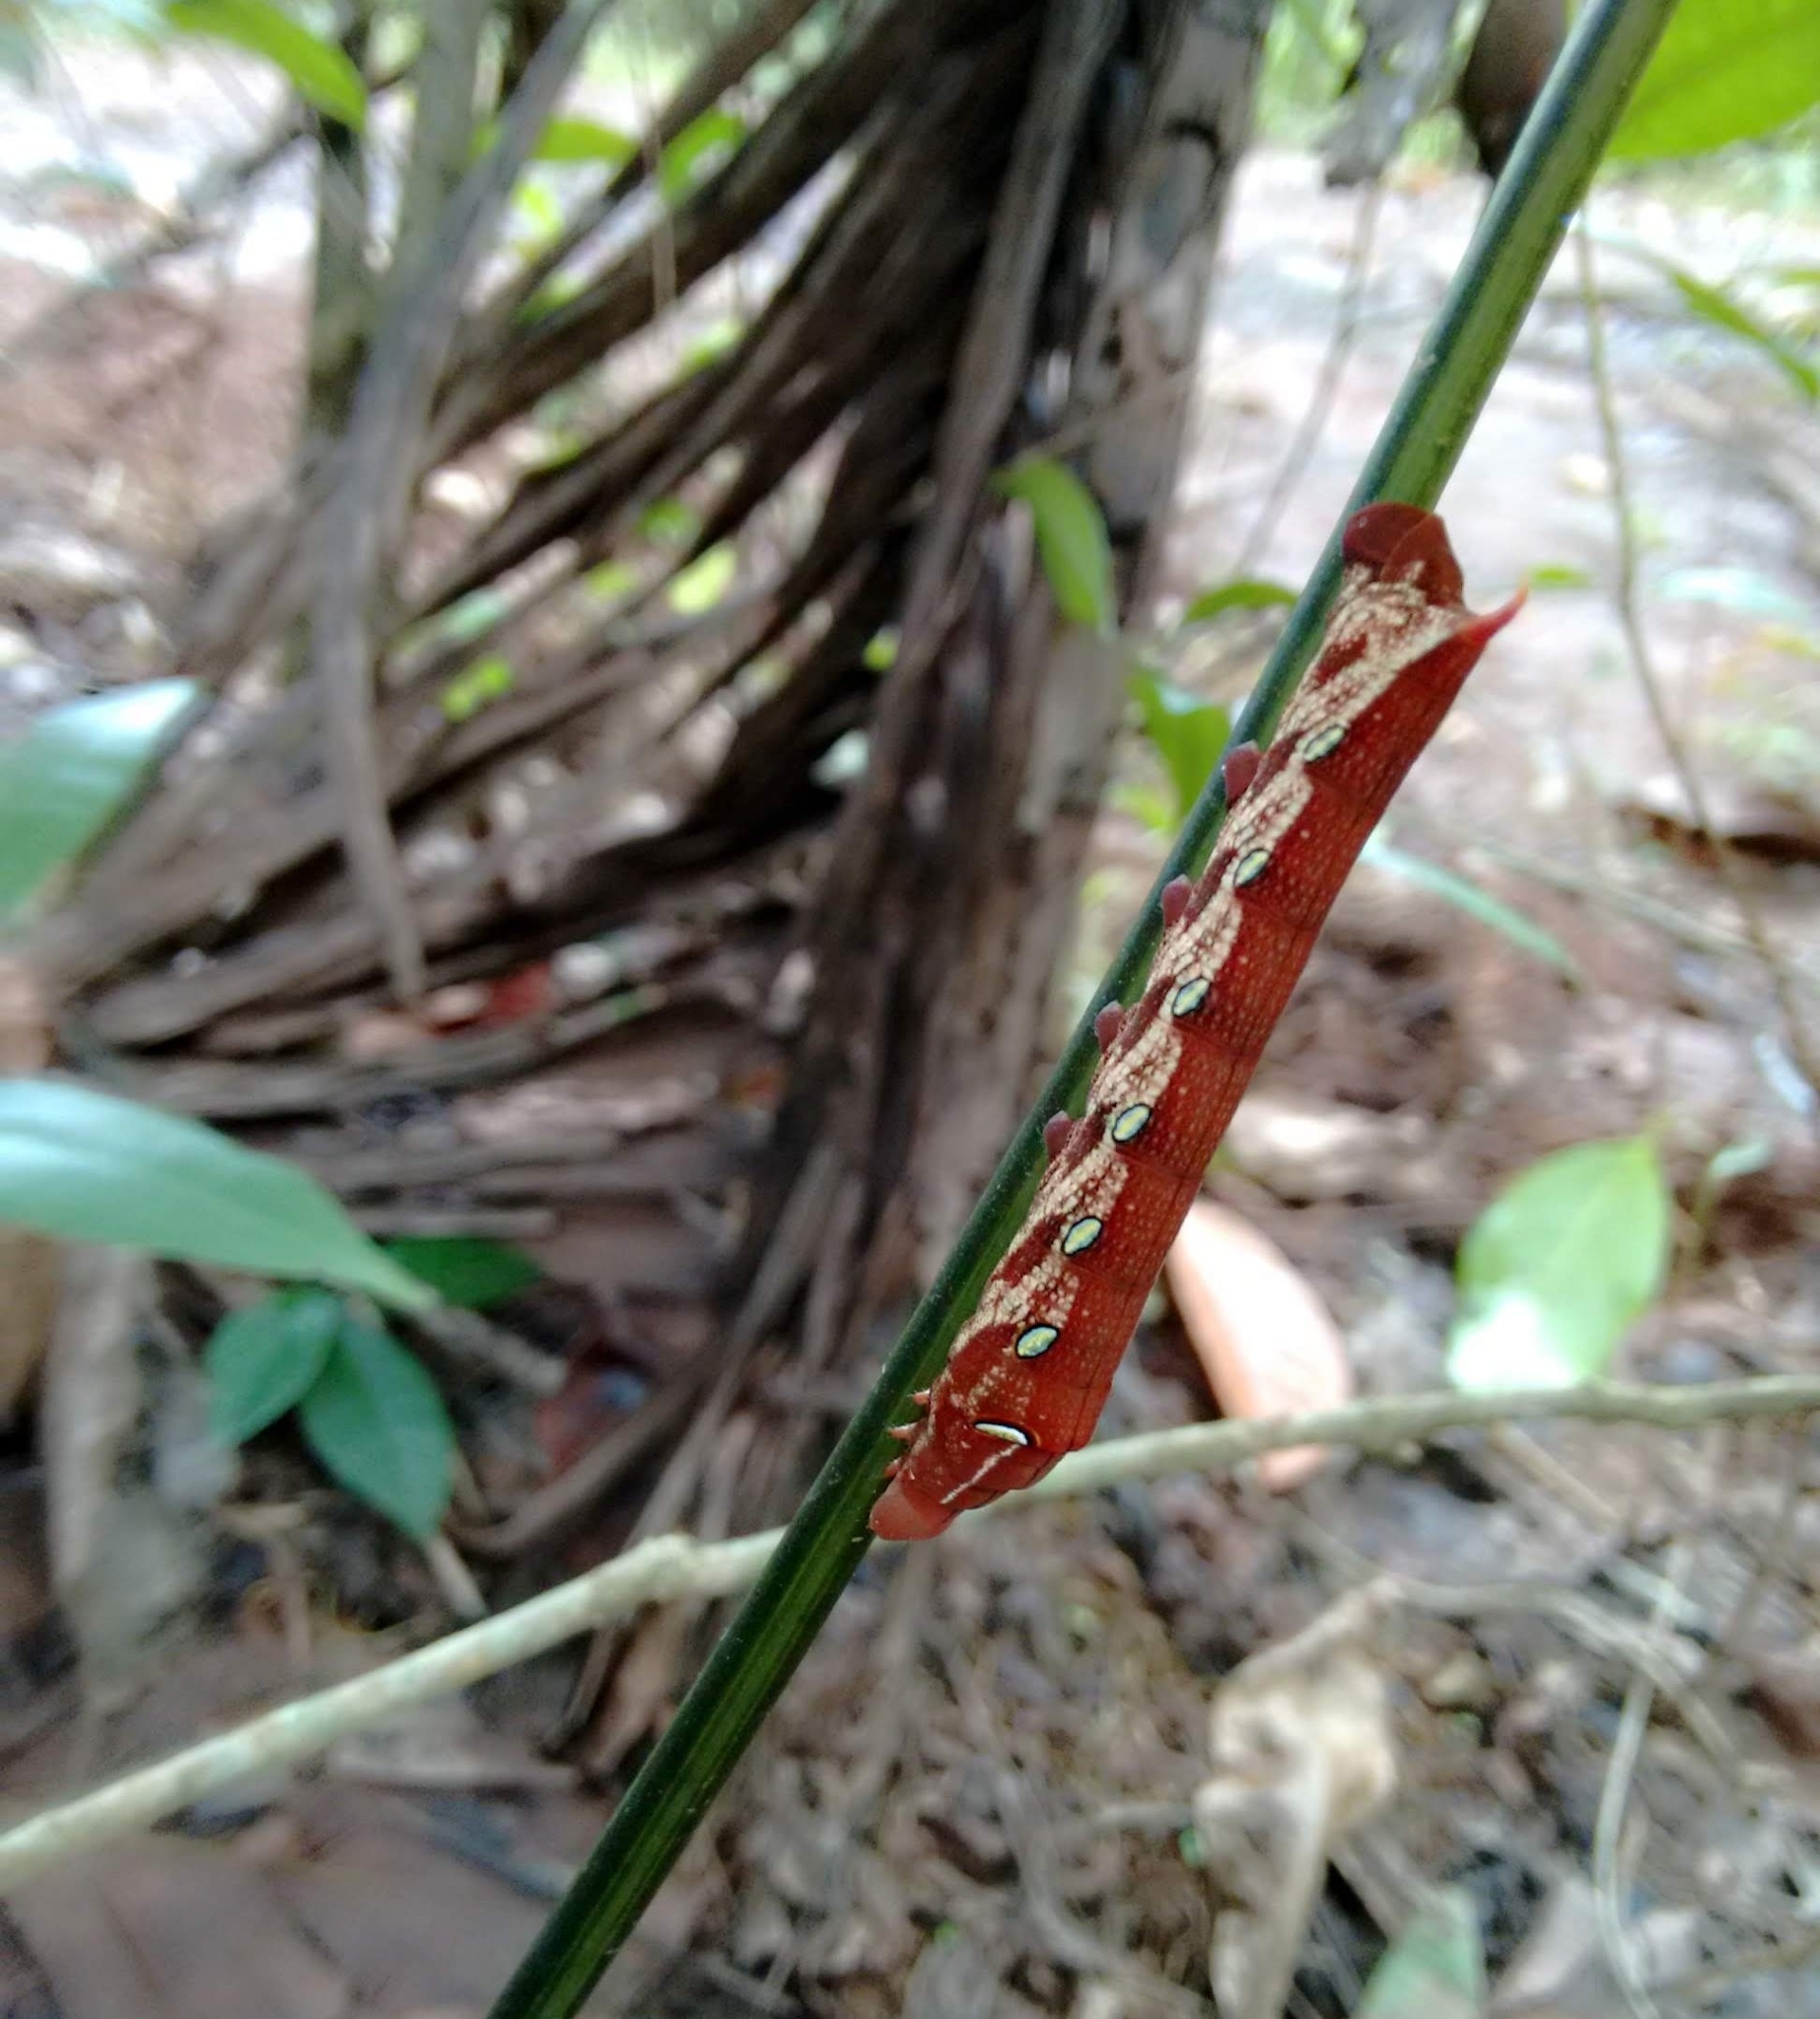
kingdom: Animalia
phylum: Arthropoda
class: Insecta
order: Lepidoptera
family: Sphingidae
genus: Pergesa
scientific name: Pergesa acteus
